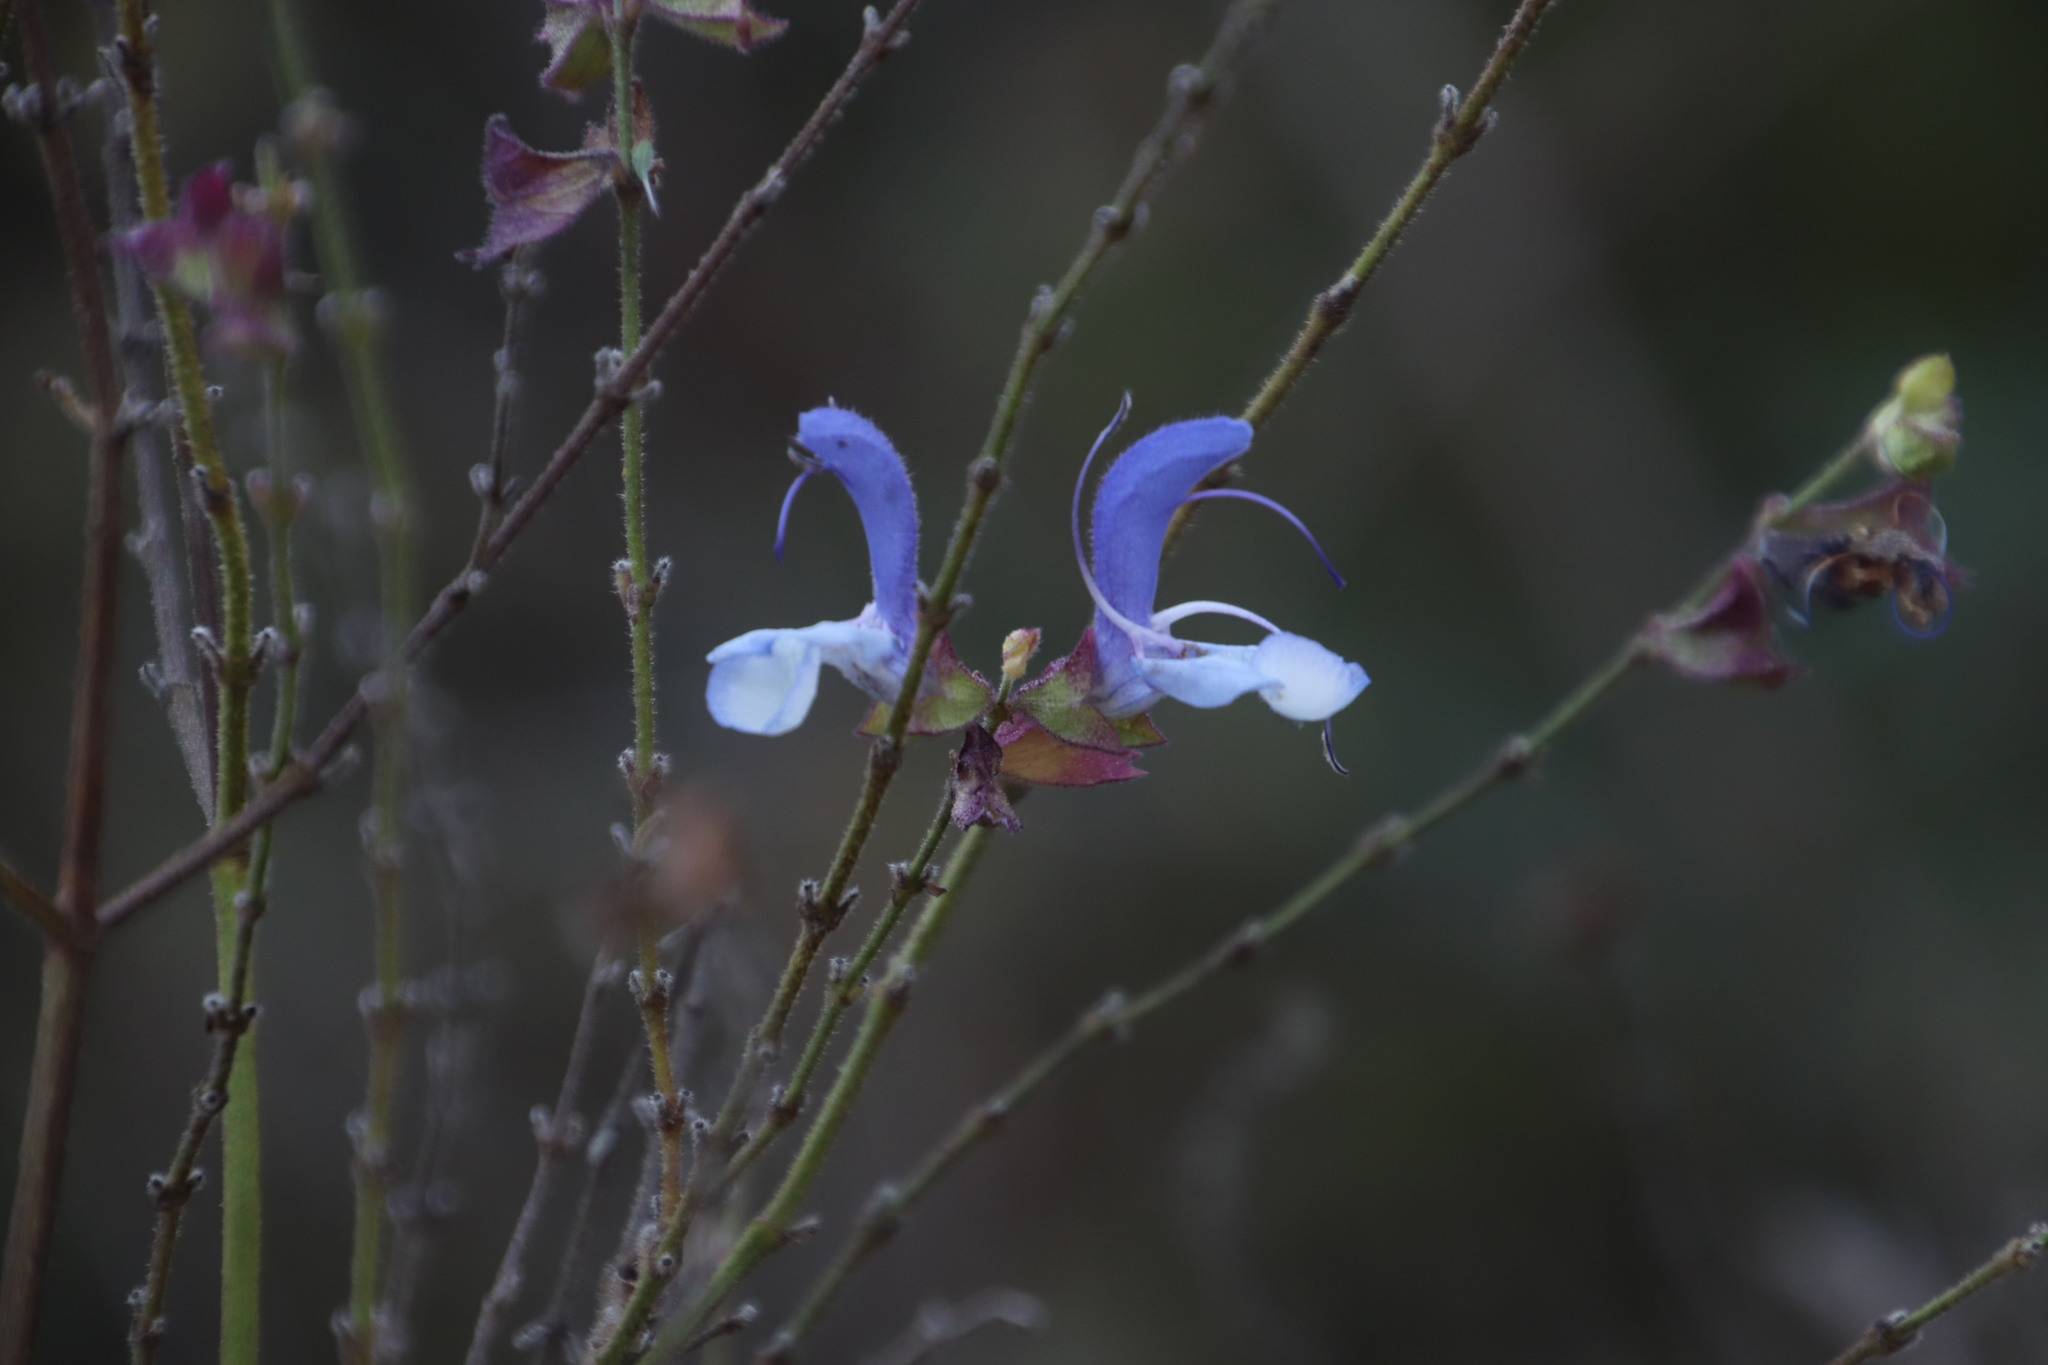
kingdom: Plantae
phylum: Tracheophyta
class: Magnoliopsida
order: Lamiales
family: Lamiaceae
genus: Salvia
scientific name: Salvia chamelaeagnea
